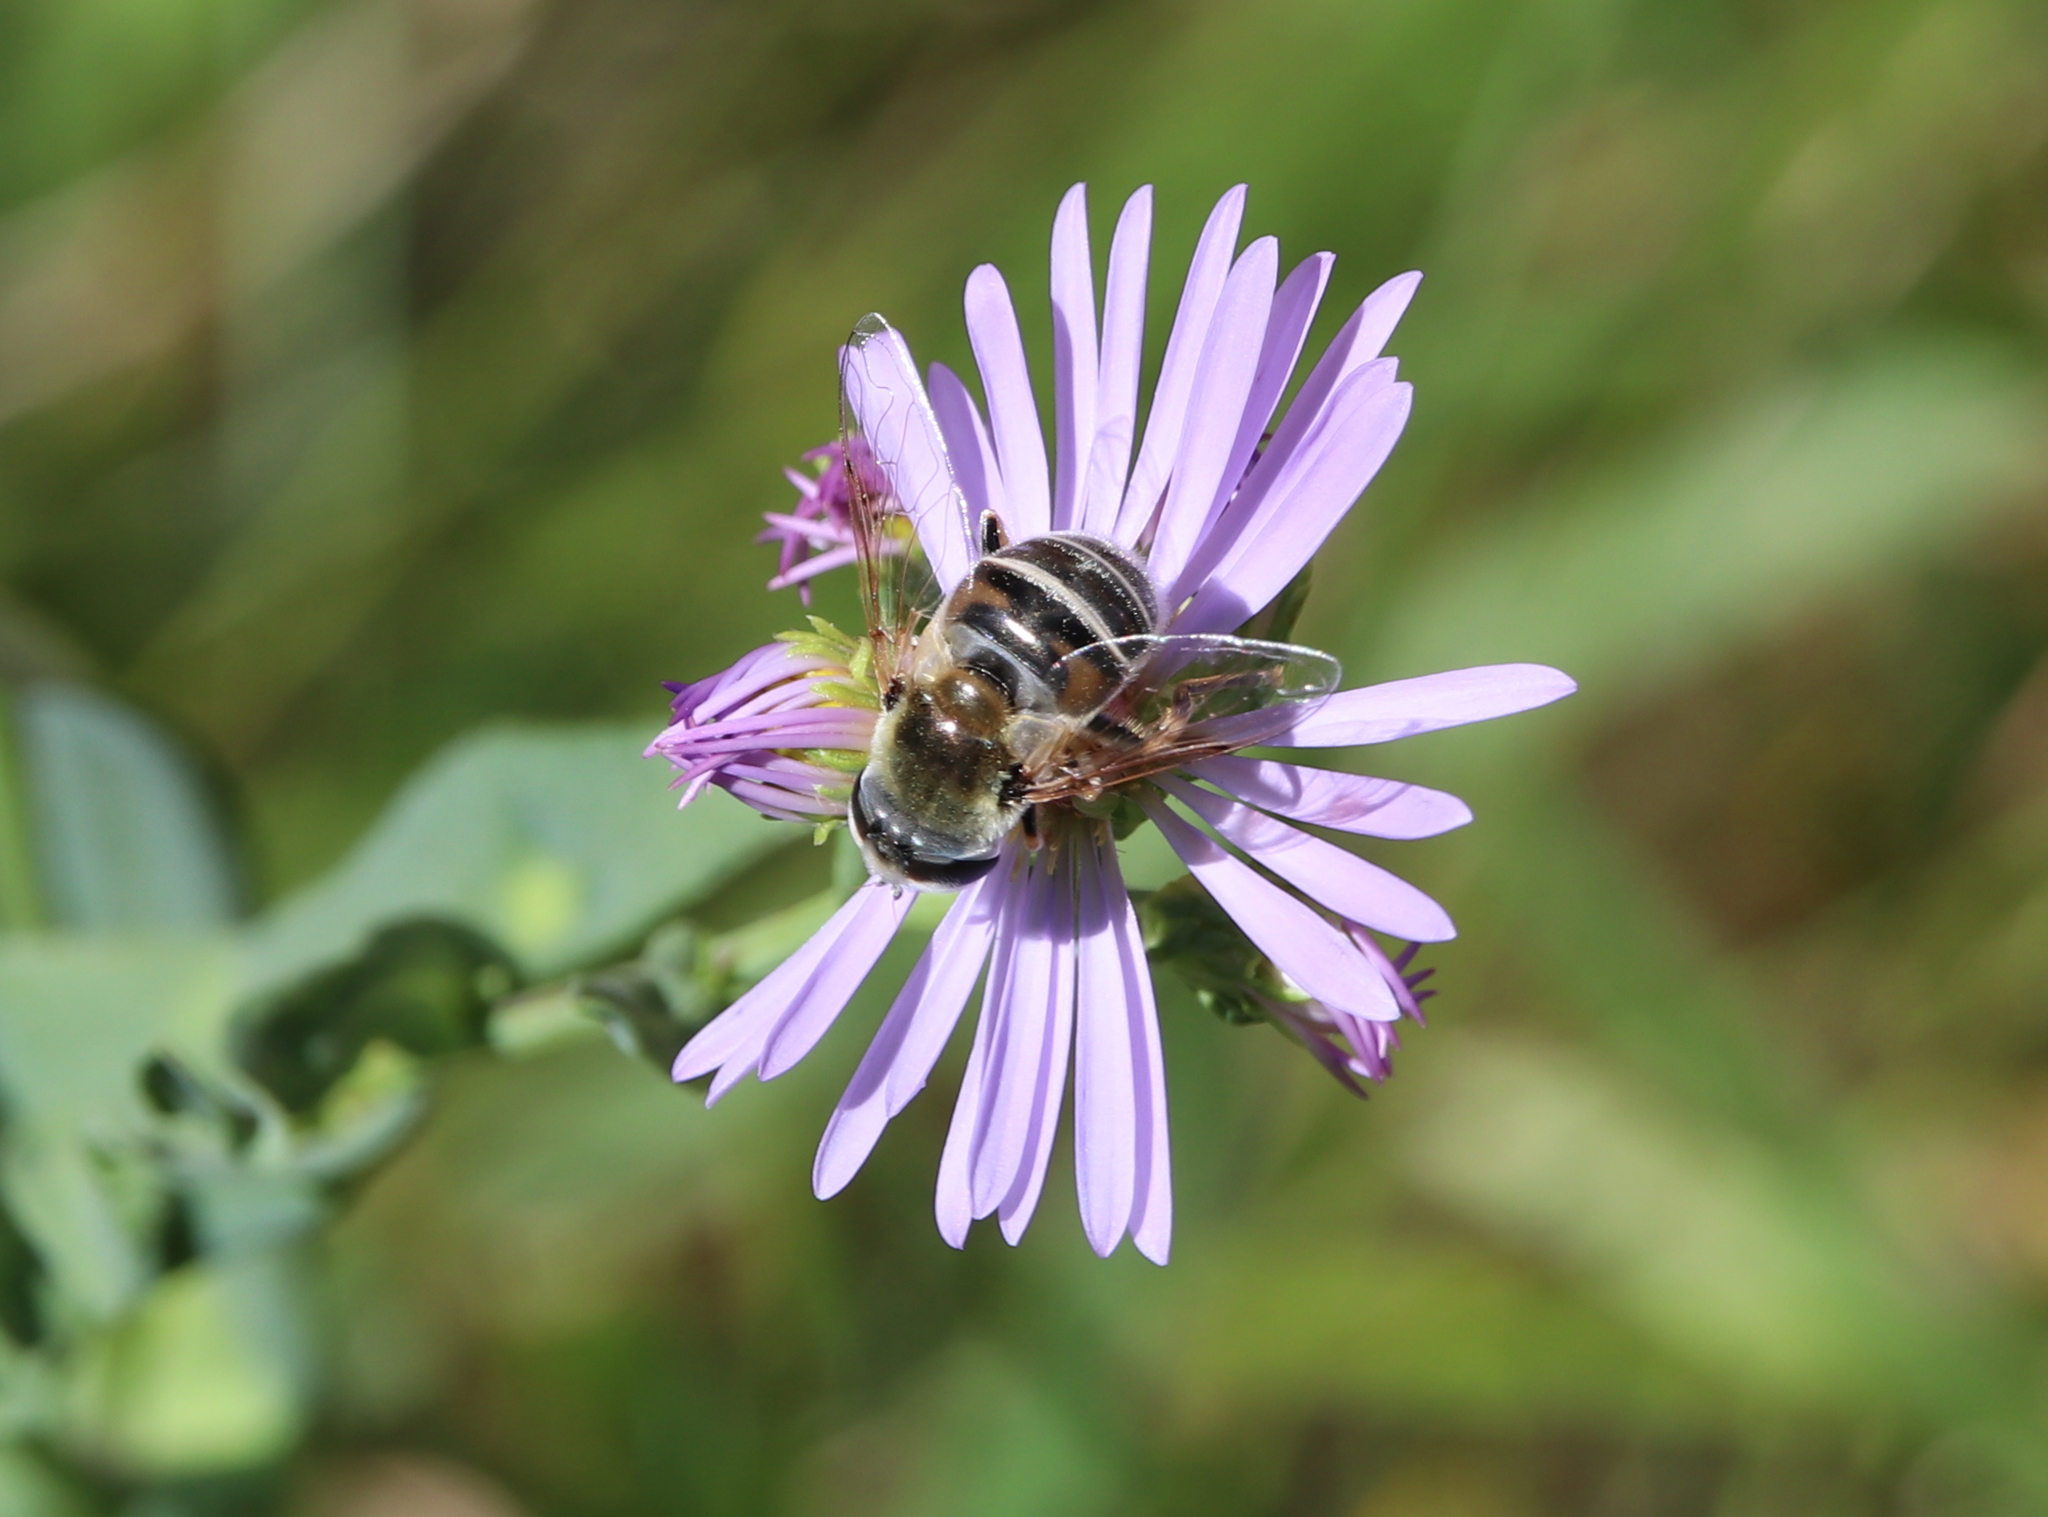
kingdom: Animalia
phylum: Arthropoda
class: Insecta
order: Diptera
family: Syrphidae
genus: Eristalis
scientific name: Eristalis stipator
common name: Yellow-shouldered drone fly
